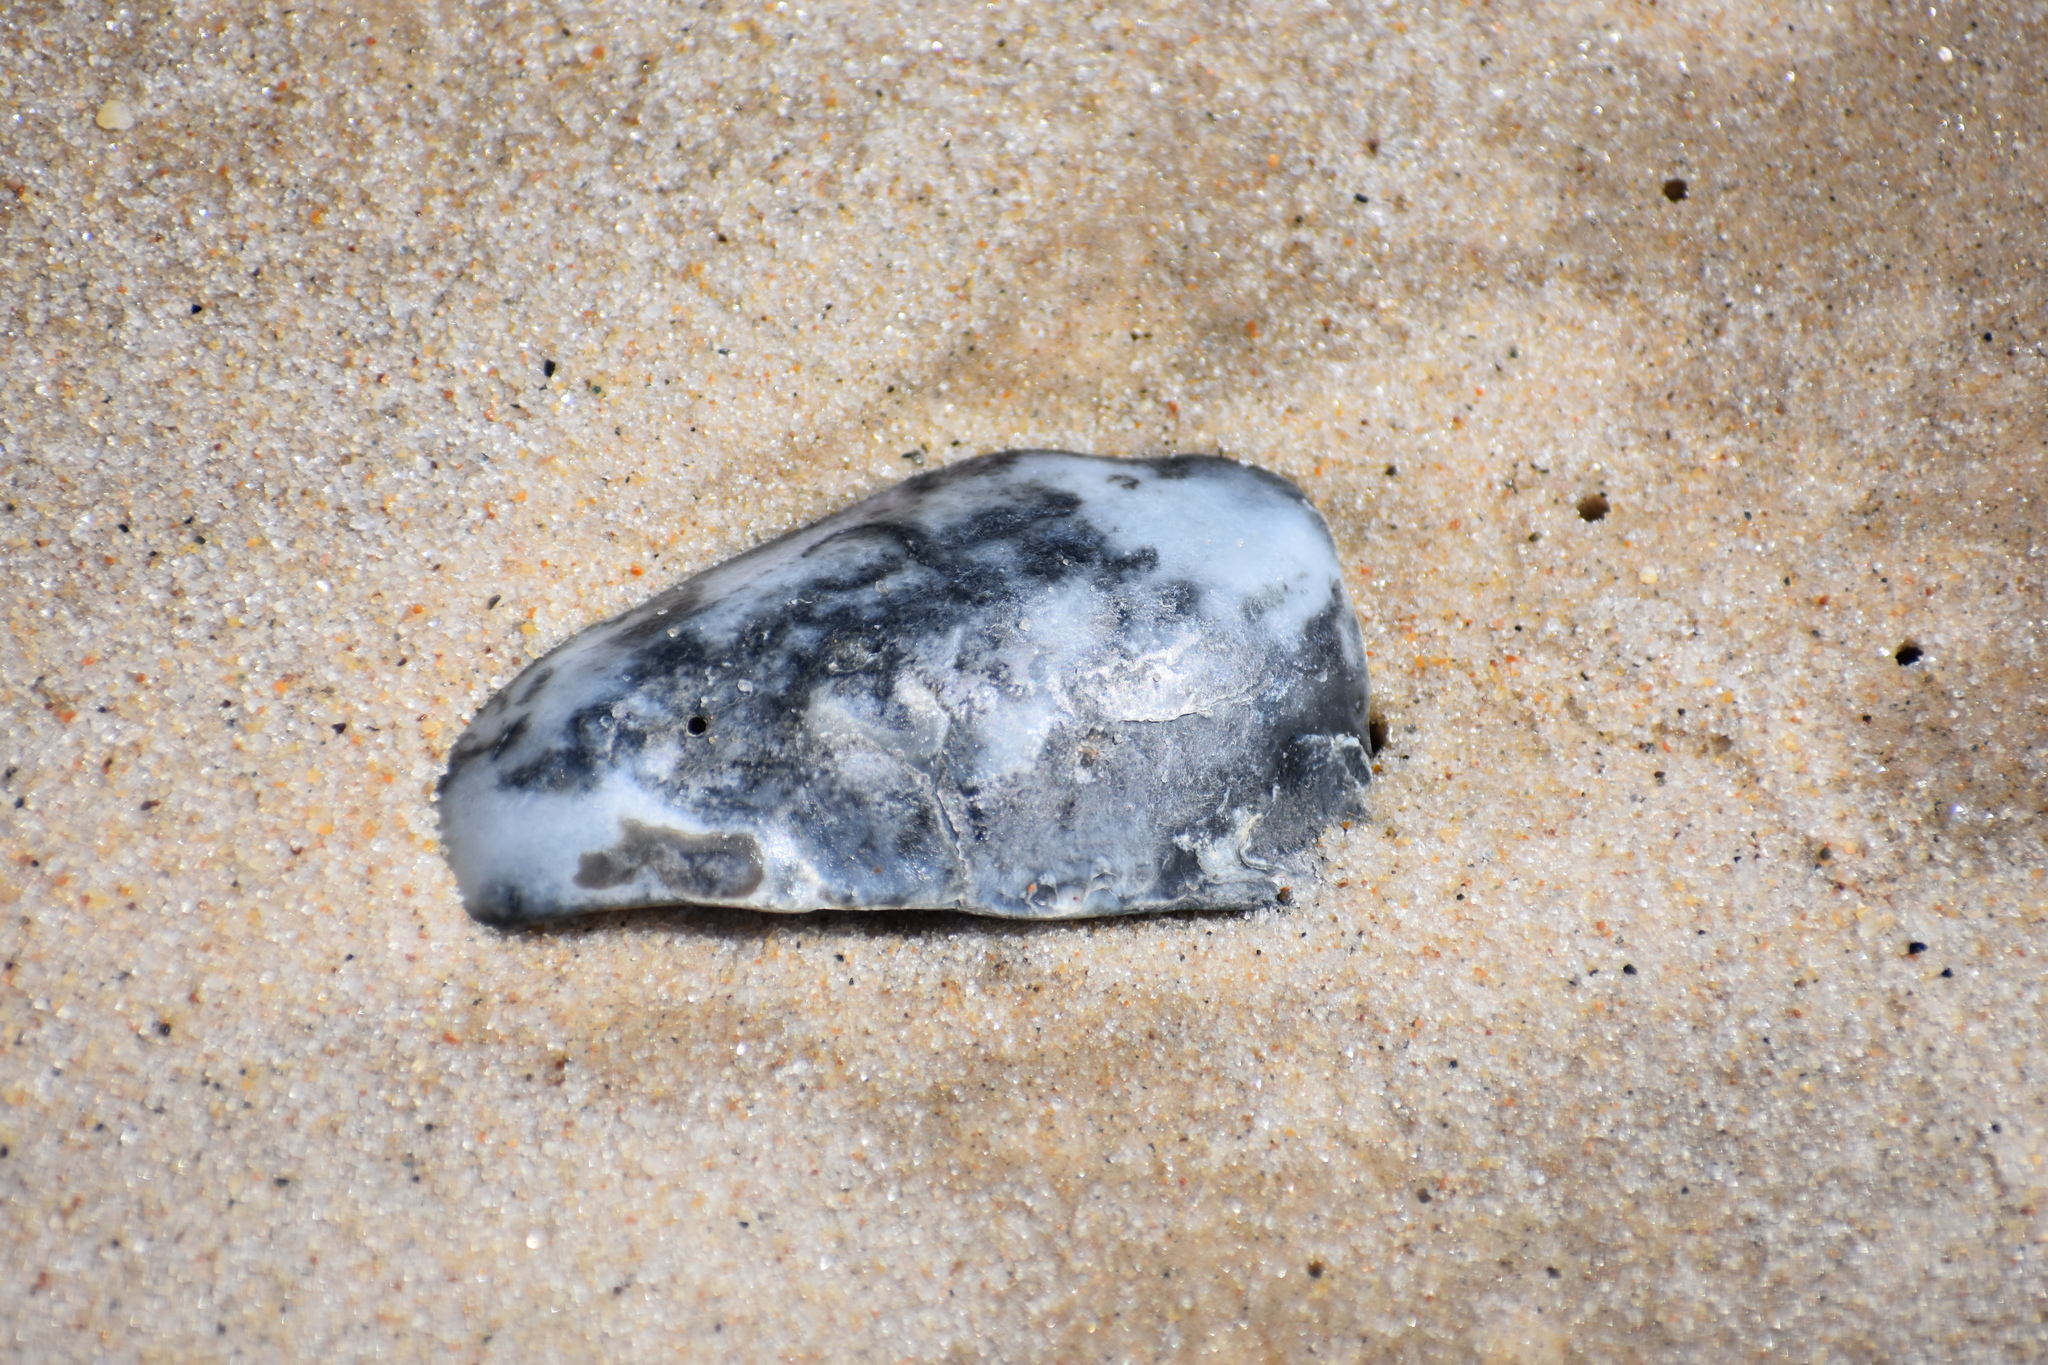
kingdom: Animalia
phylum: Mollusca
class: Bivalvia
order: Ostreida
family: Ostreidae
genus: Crassostrea
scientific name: Crassostrea virginica
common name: American oyster
